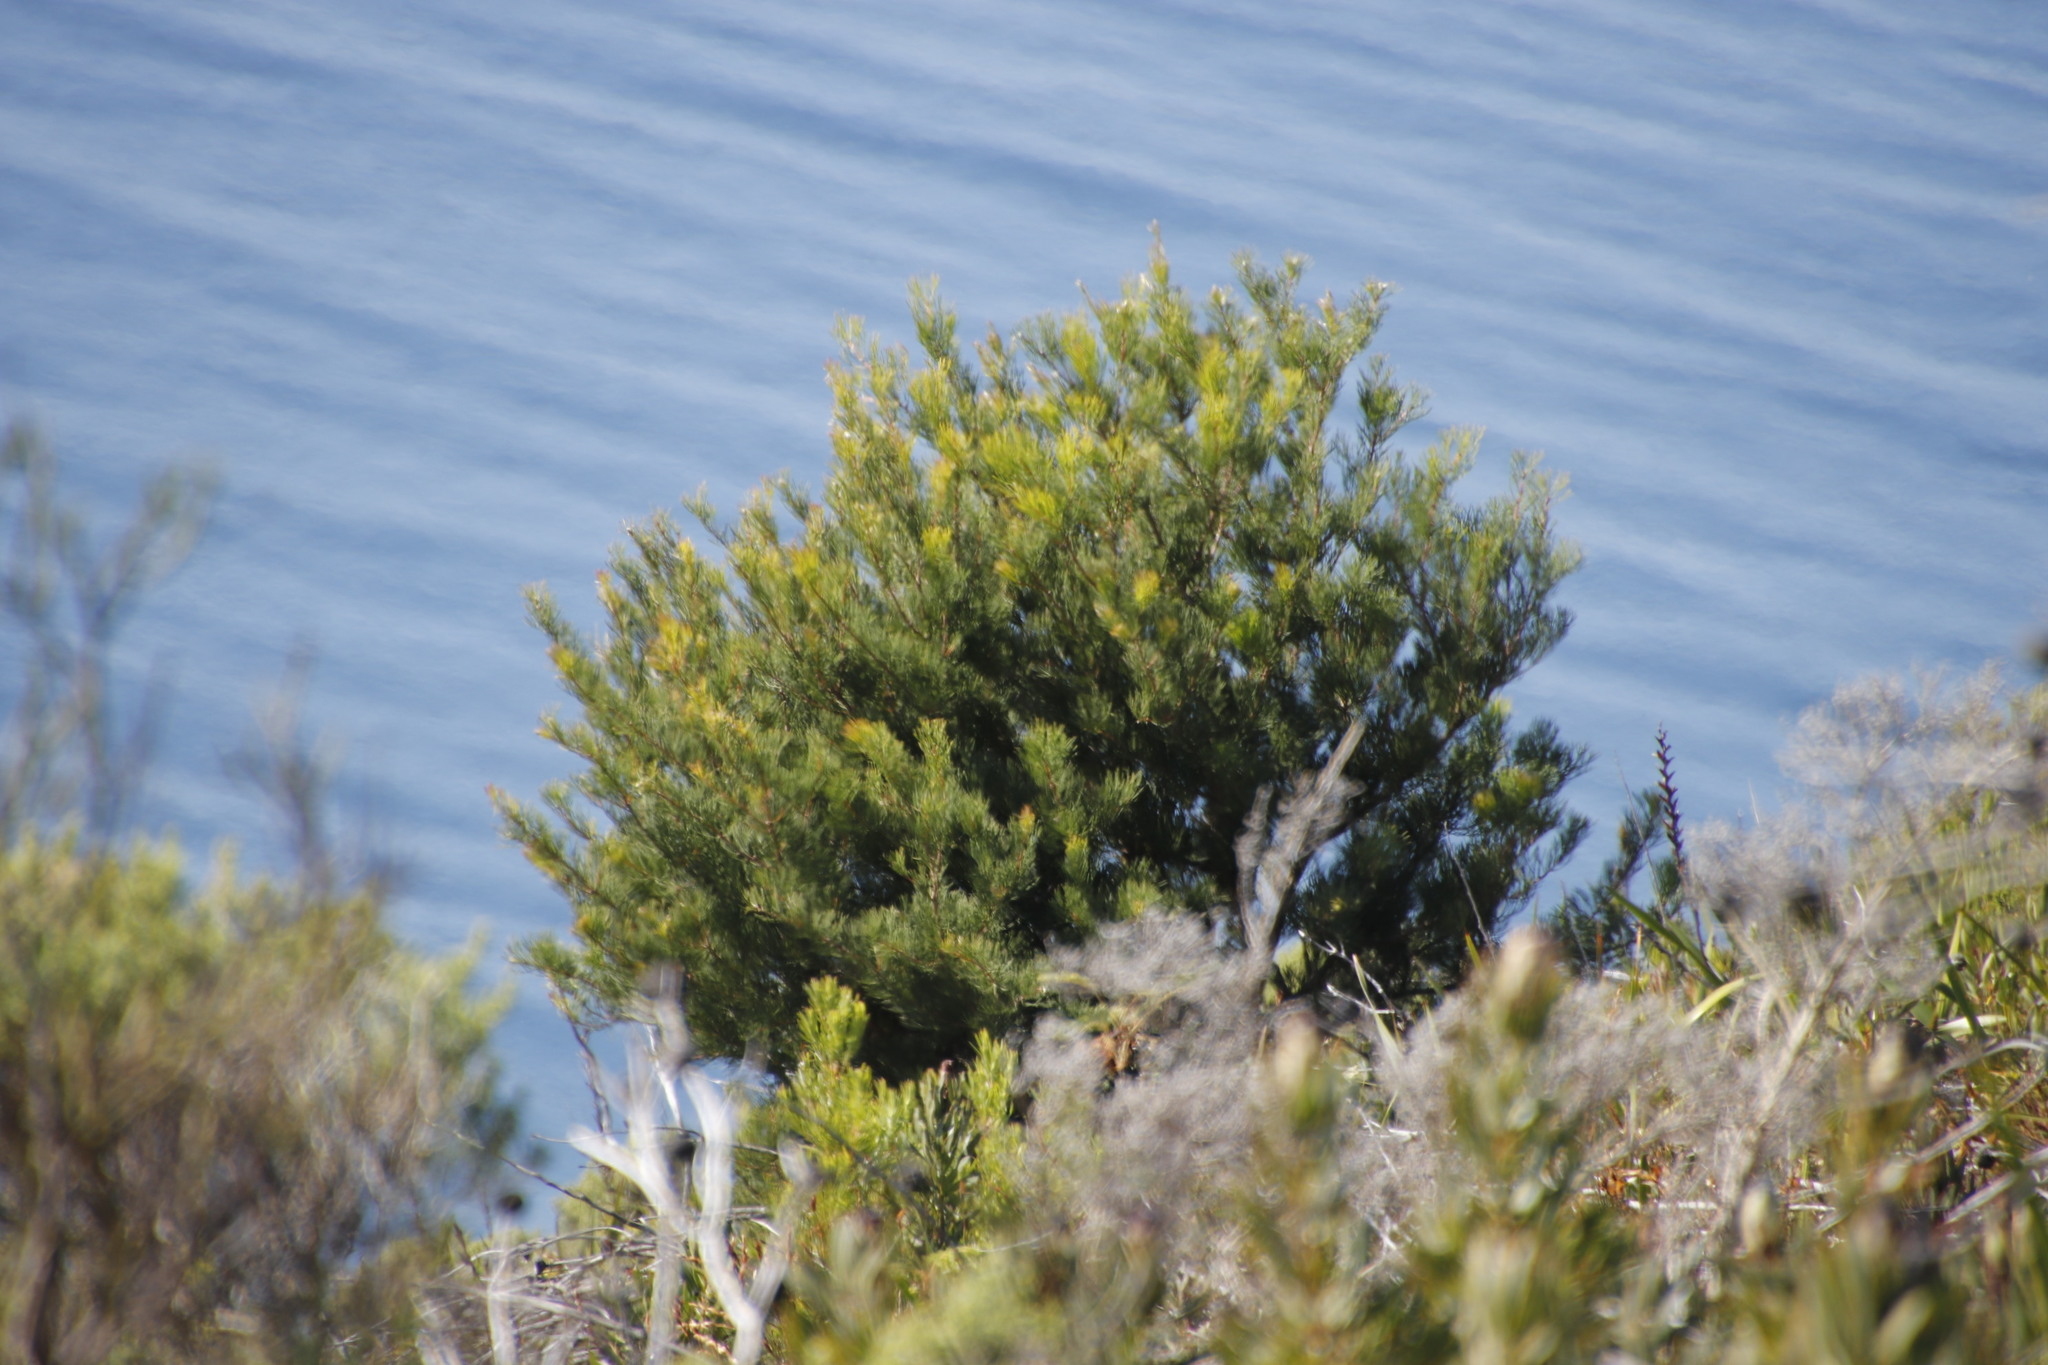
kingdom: Plantae
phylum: Tracheophyta
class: Magnoliopsida
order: Proteales
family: Proteaceae
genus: Hakea
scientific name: Hakea drupacea
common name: Sweet hakea
